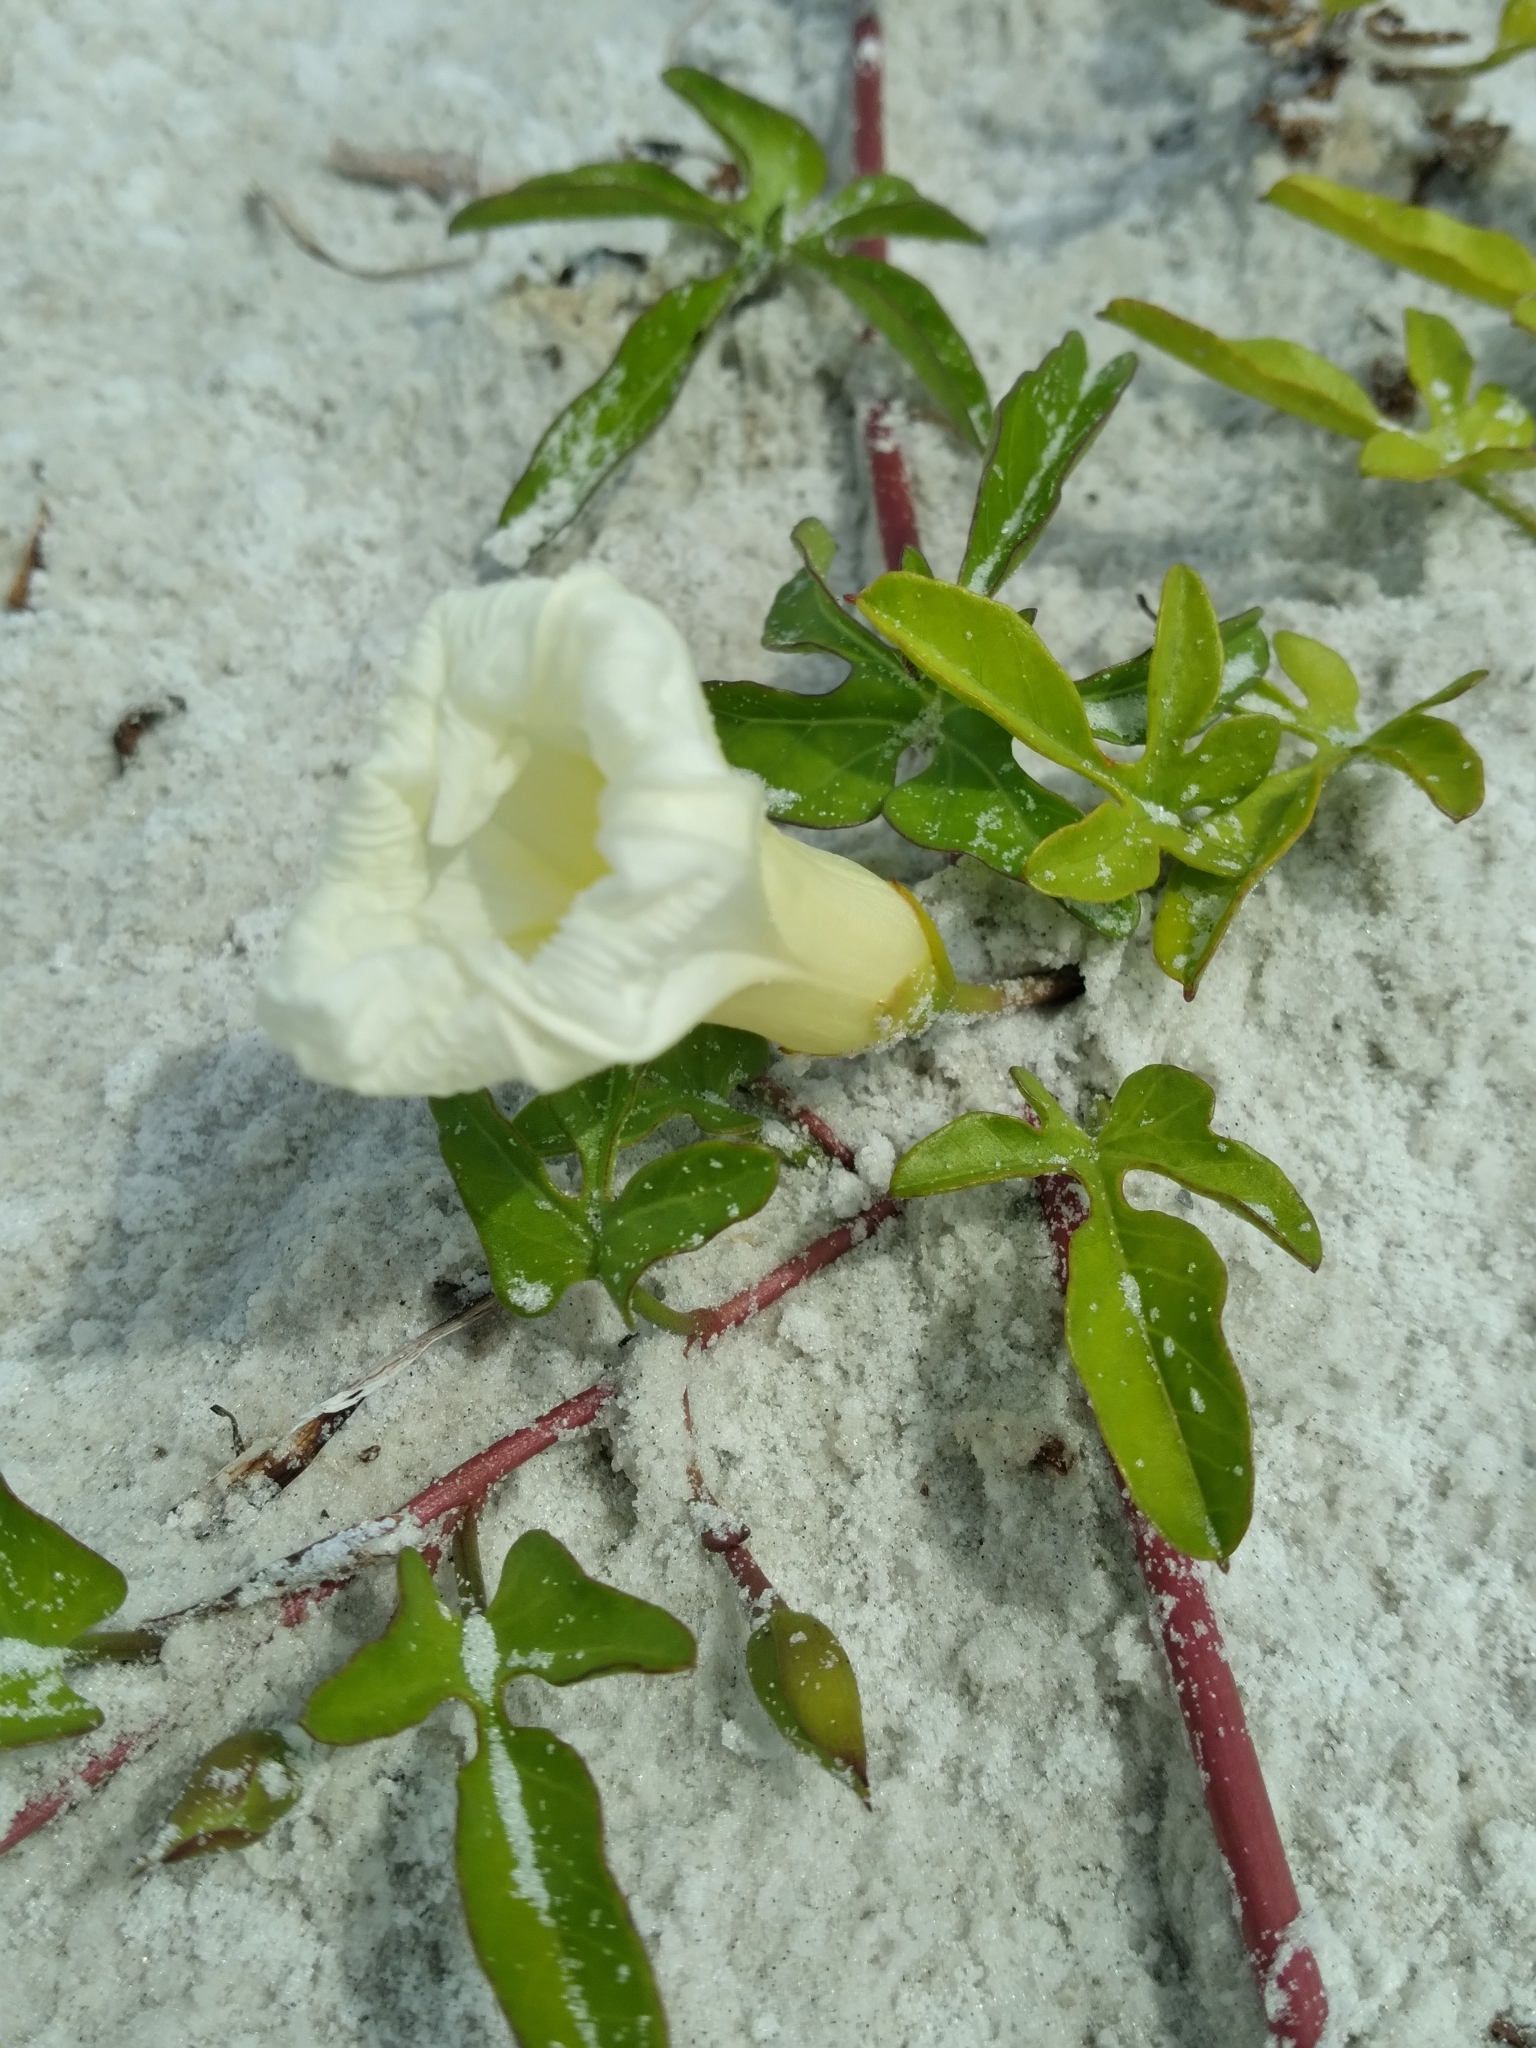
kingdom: Plantae
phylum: Tracheophyta
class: Magnoliopsida
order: Solanales
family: Convolvulaceae
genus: Ipomoea
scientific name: Ipomoea imperati
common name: Fiddle-leaf morning-glory
